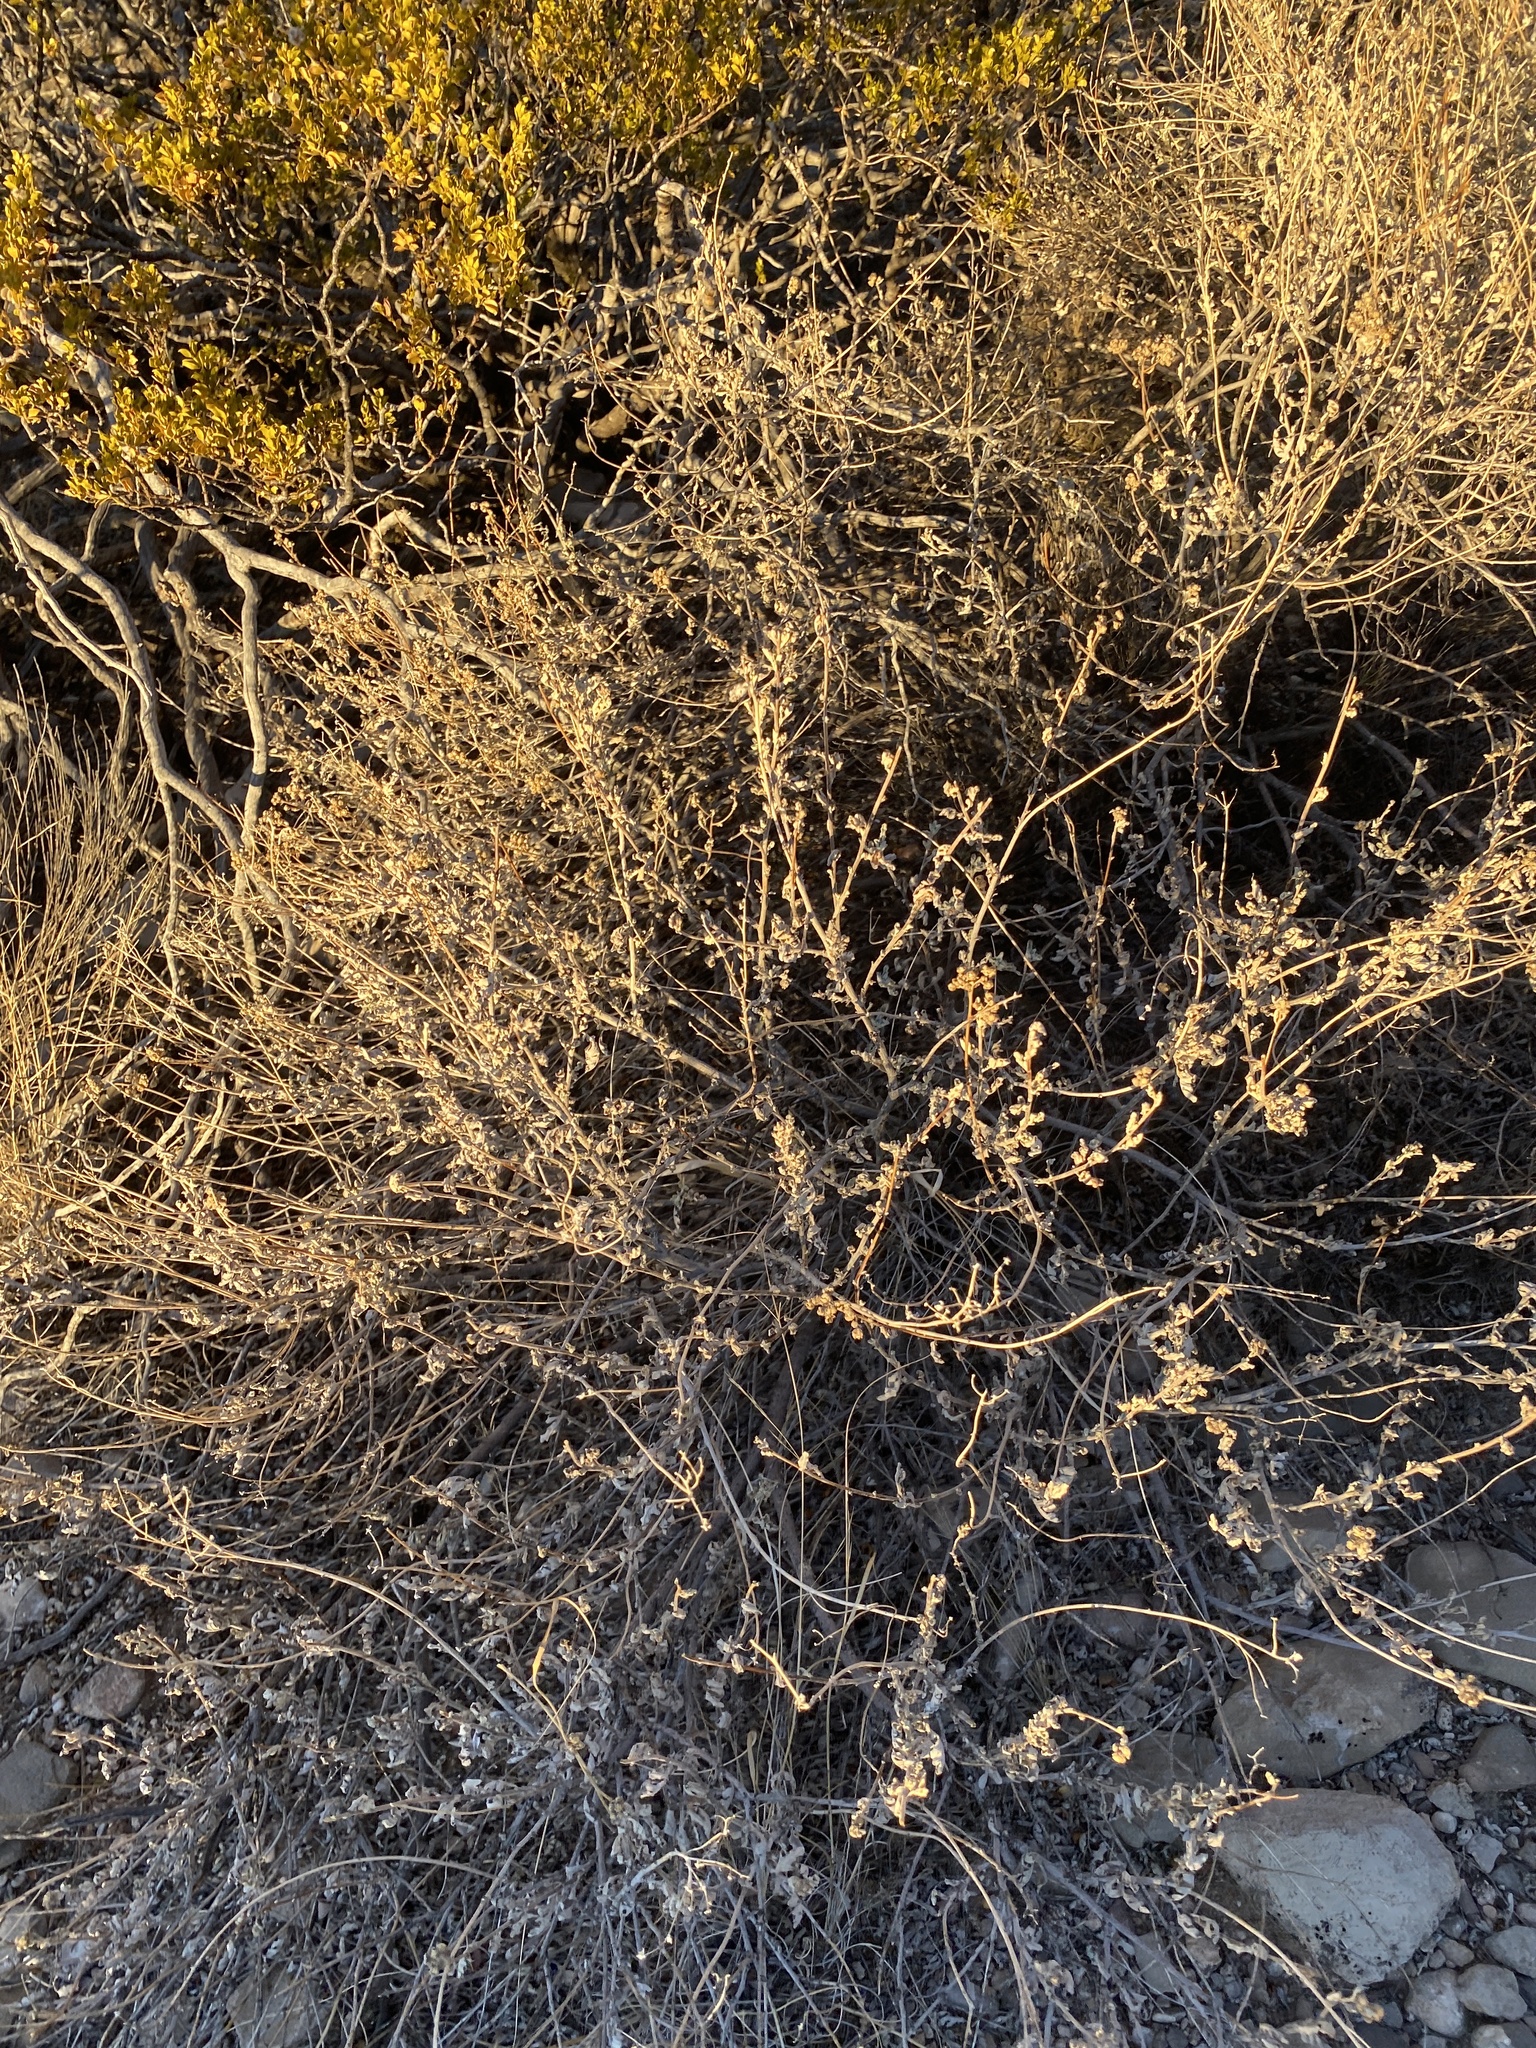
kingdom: Plantae
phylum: Tracheophyta
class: Magnoliopsida
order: Asterales
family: Asteraceae
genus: Parthenium
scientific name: Parthenium incanum
